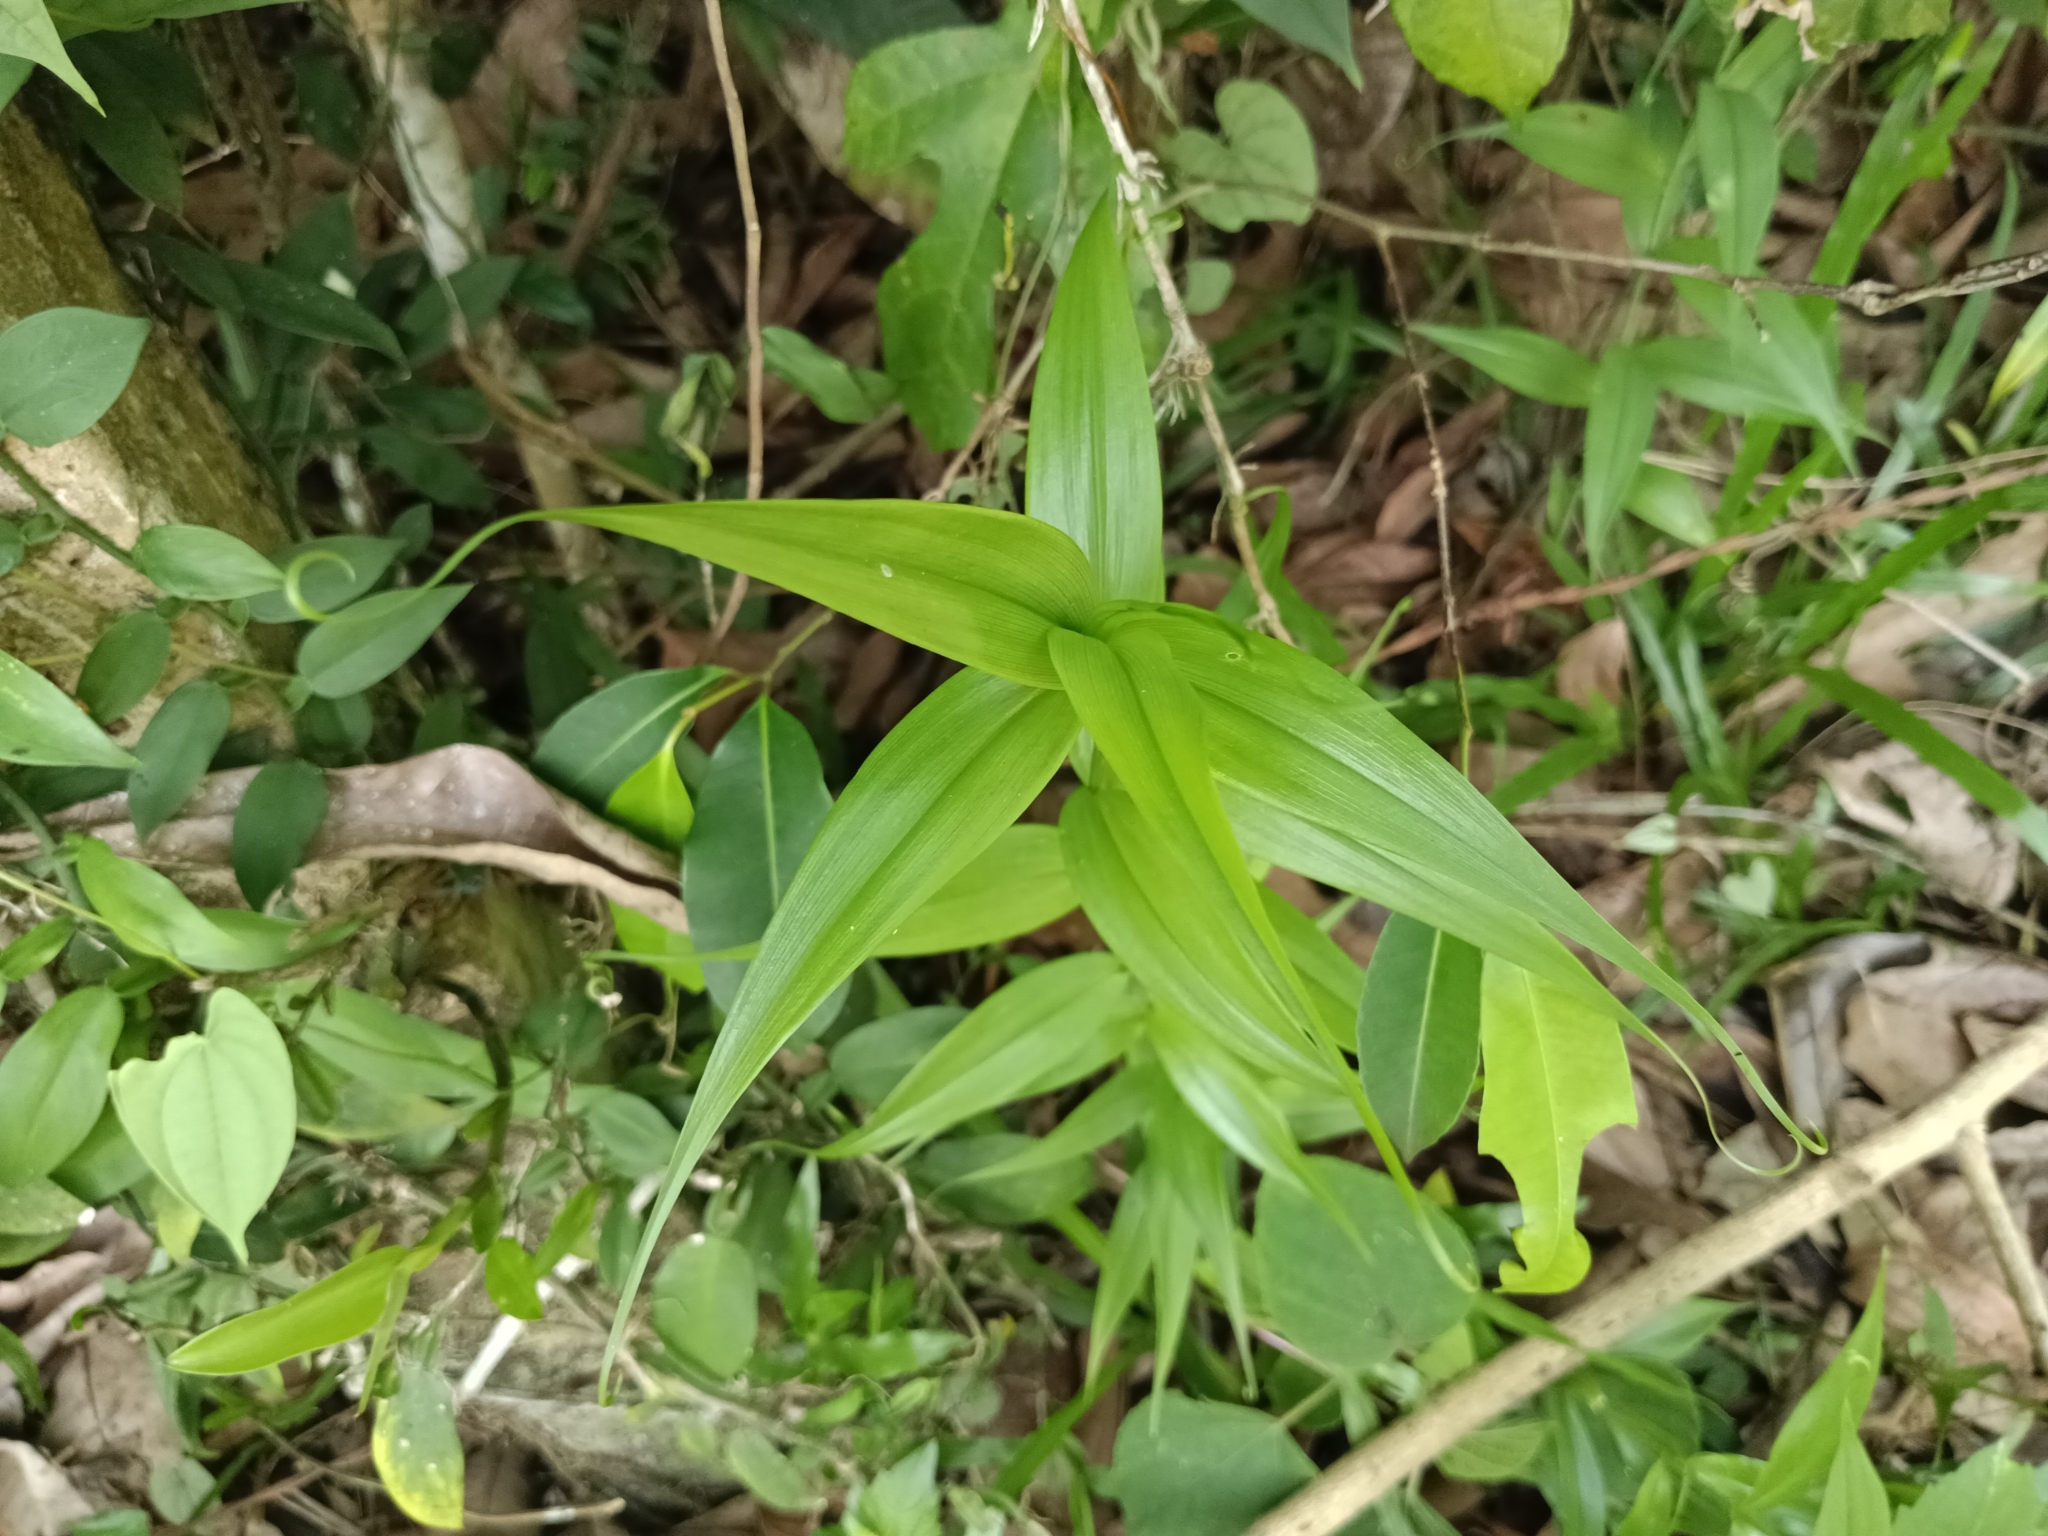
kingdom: Plantae
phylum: Tracheophyta
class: Liliopsida
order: Liliales
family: Colchicaceae
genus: Gloriosa
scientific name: Gloriosa superba
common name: Flame lily
